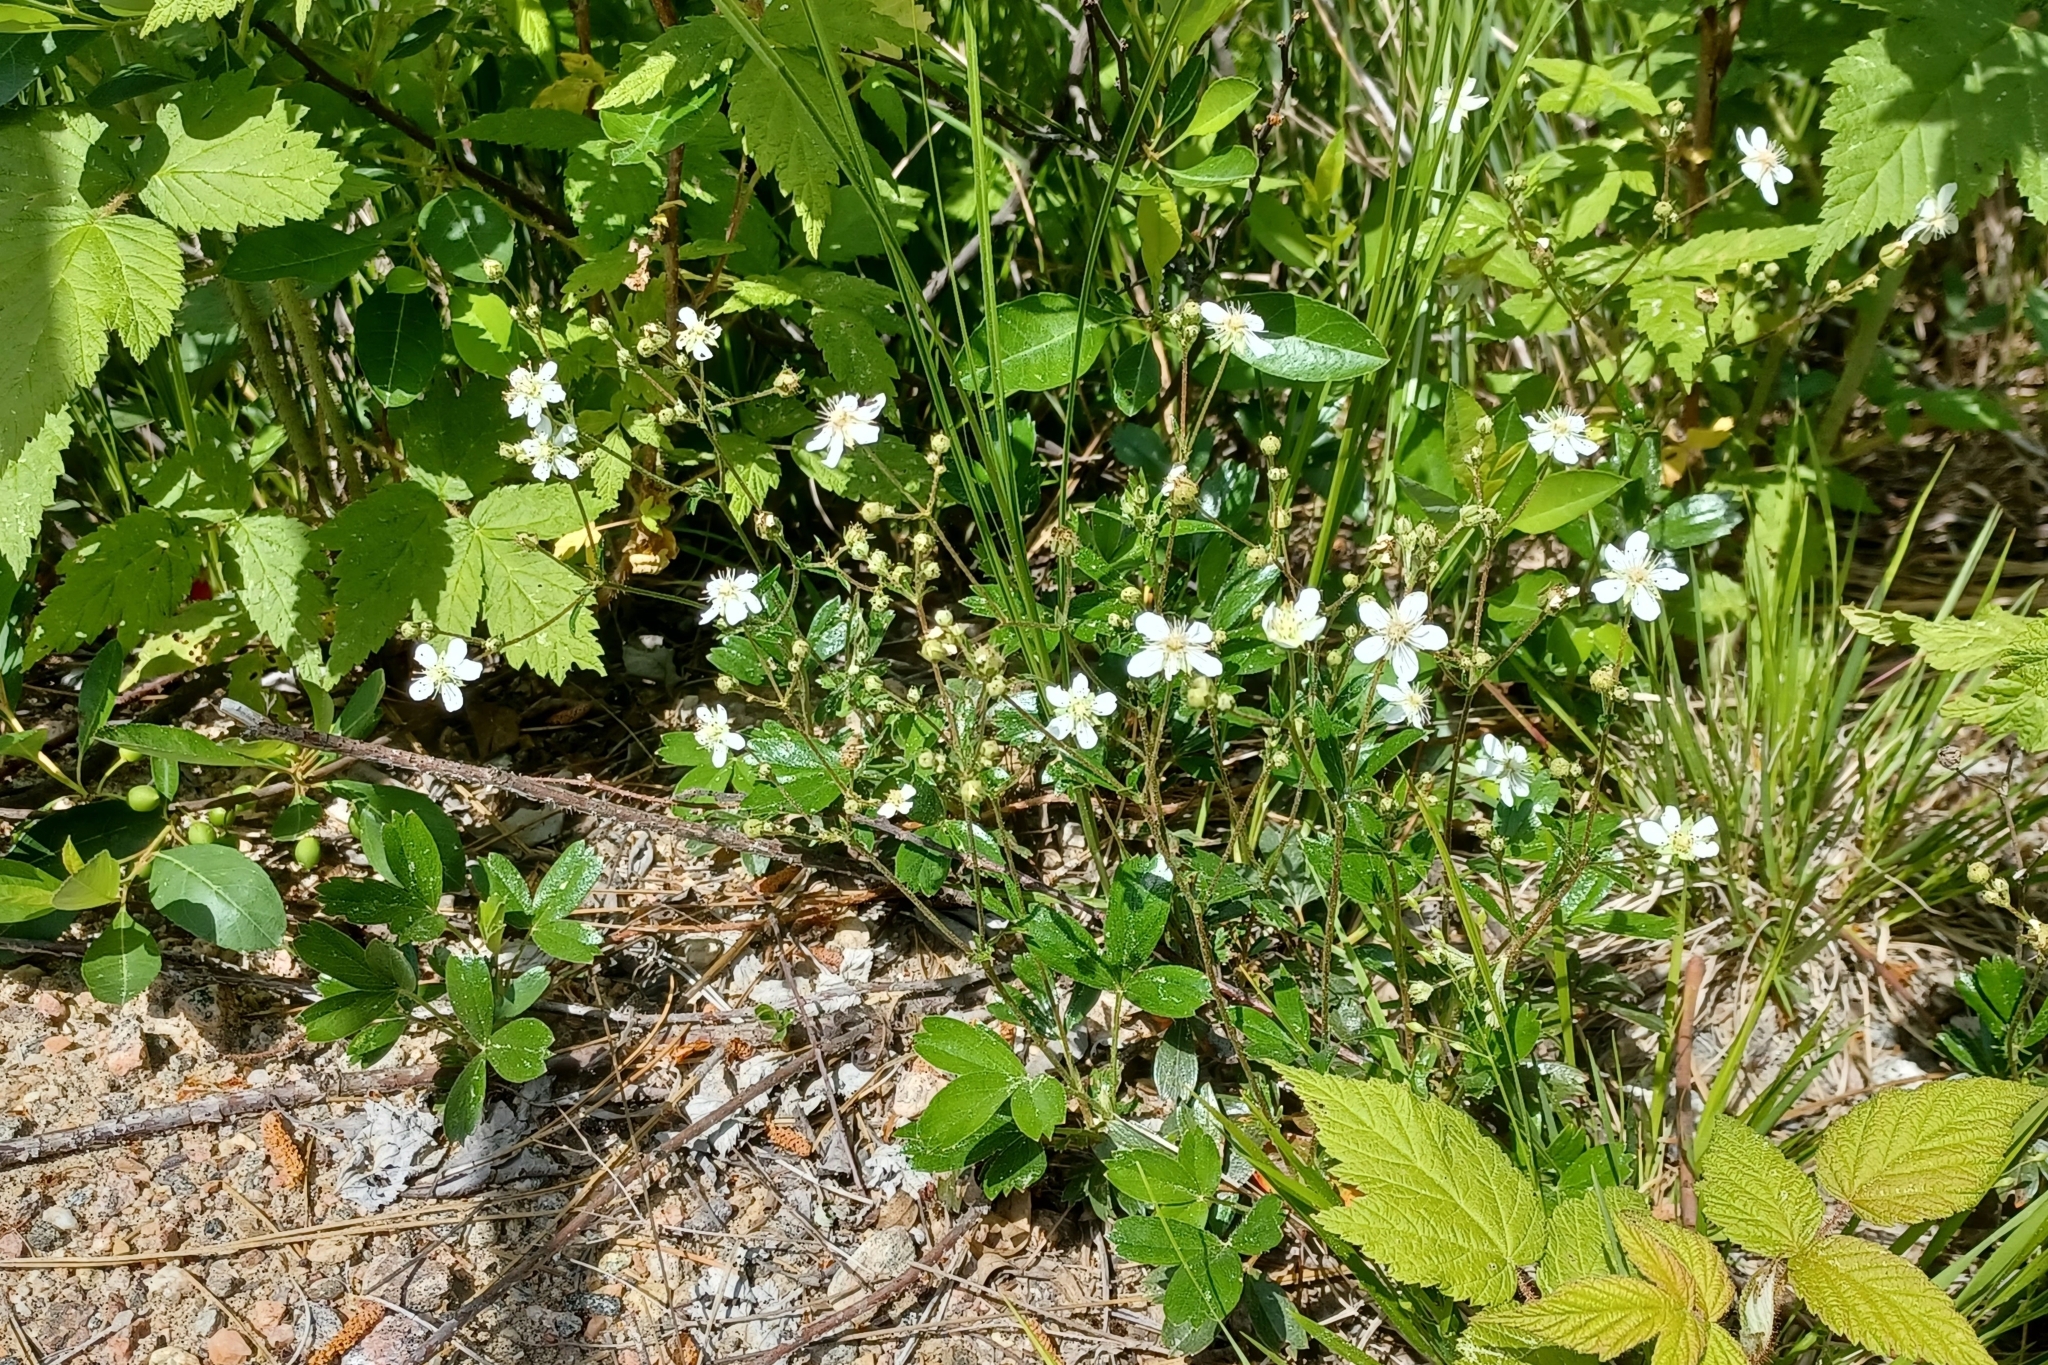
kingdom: Plantae
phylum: Tracheophyta
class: Magnoliopsida
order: Rosales
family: Rosaceae
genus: Sibbaldia
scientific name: Sibbaldia tridentata
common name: Three-toothed cinquefoil
